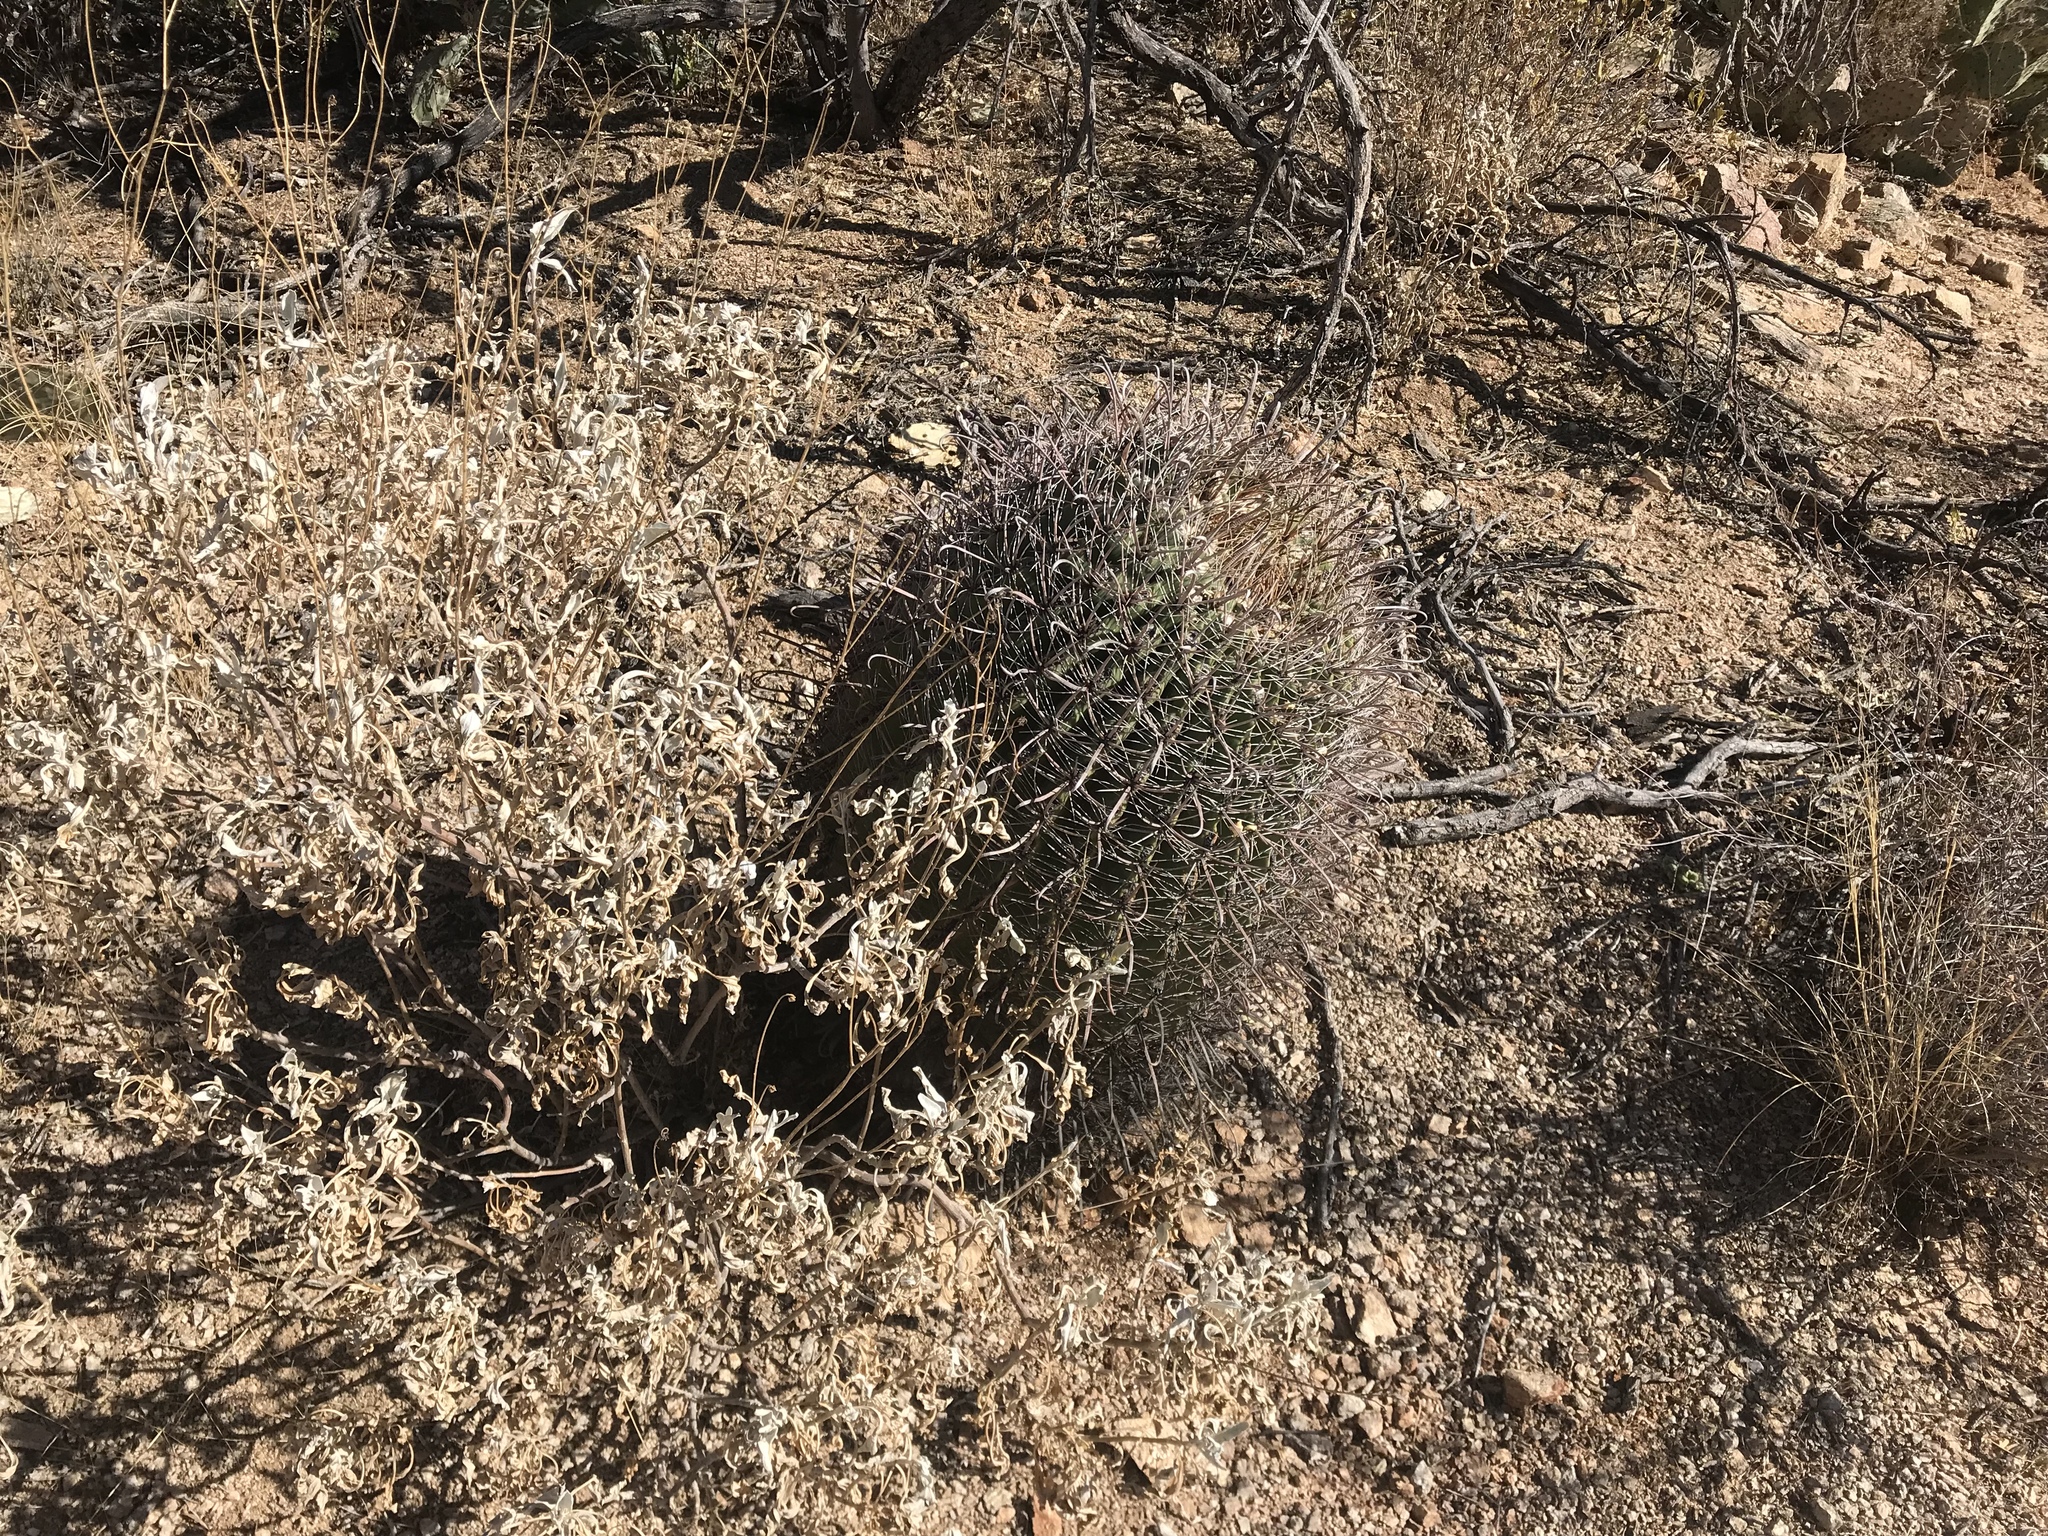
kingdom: Plantae
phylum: Tracheophyta
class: Magnoliopsida
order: Caryophyllales
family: Cactaceae
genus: Ferocactus
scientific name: Ferocactus wislizeni
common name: Candy barrel cactus
